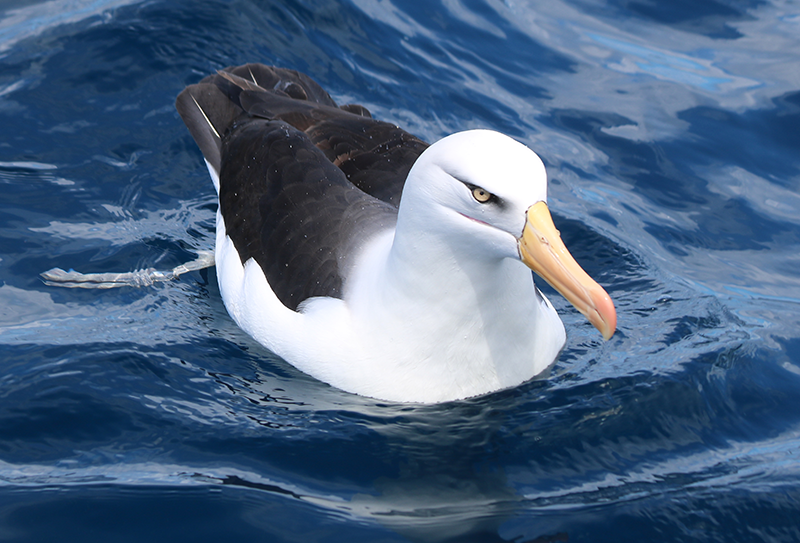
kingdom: Animalia
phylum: Chordata
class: Aves
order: Procellariiformes
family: Diomedeidae
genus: Thalassarche
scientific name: Thalassarche melanophris
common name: Black-browed albatross
